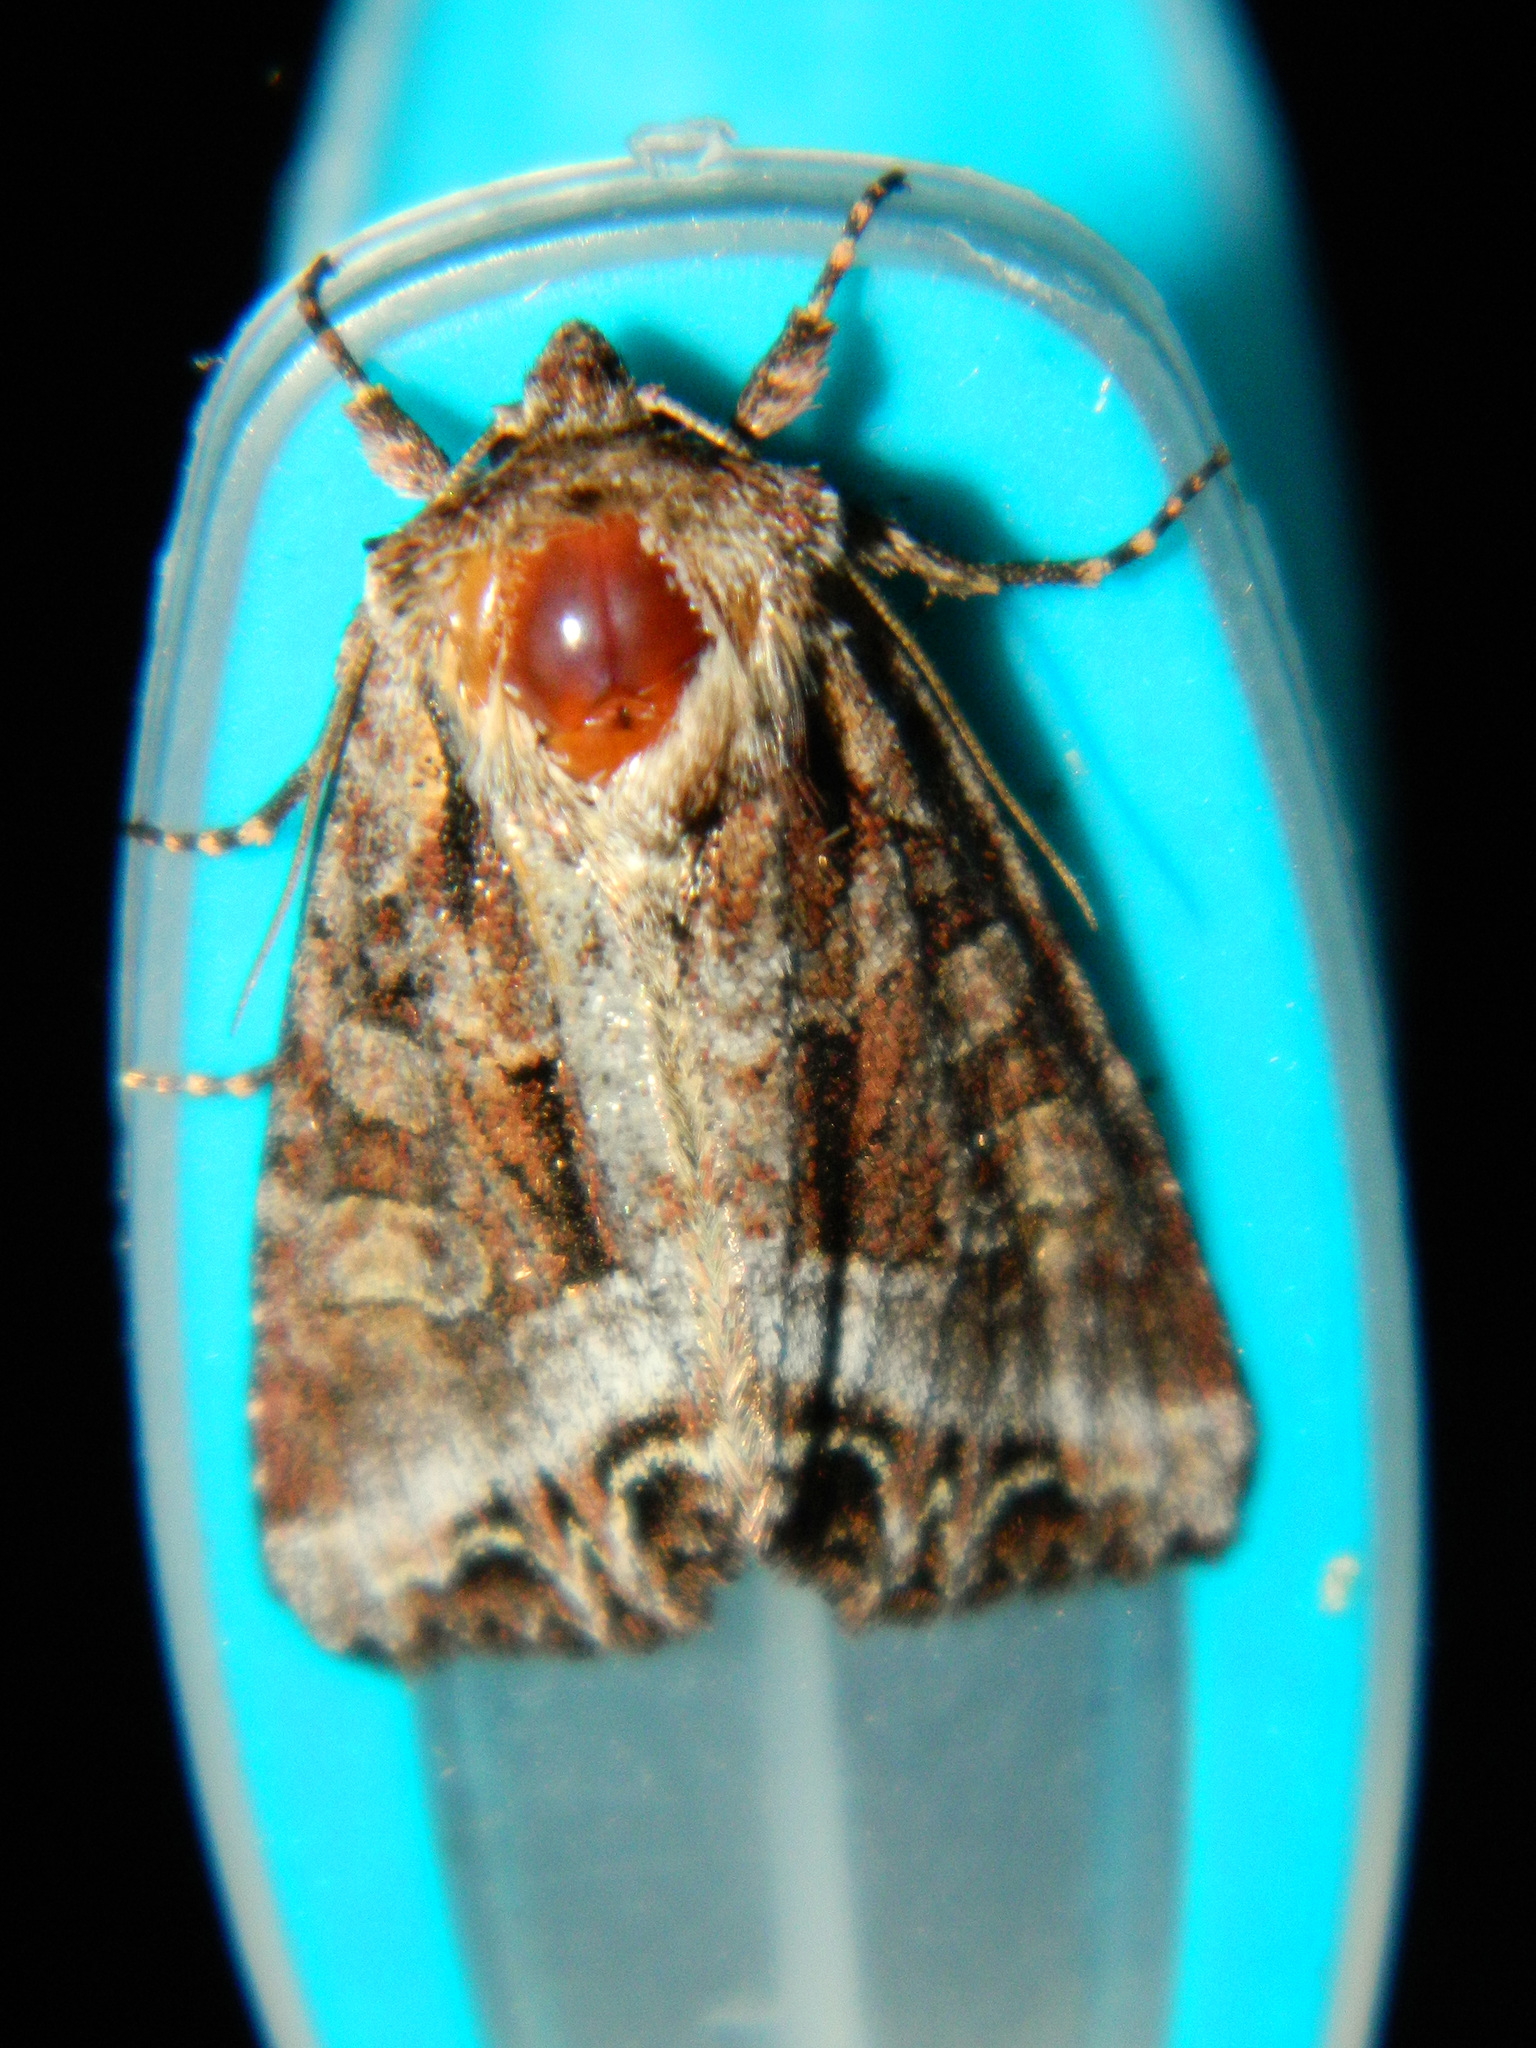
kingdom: Animalia
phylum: Arthropoda
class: Insecta
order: Lepidoptera
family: Noctuidae
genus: Lacanobia
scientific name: Lacanobia grandis
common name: Grand arches moth
